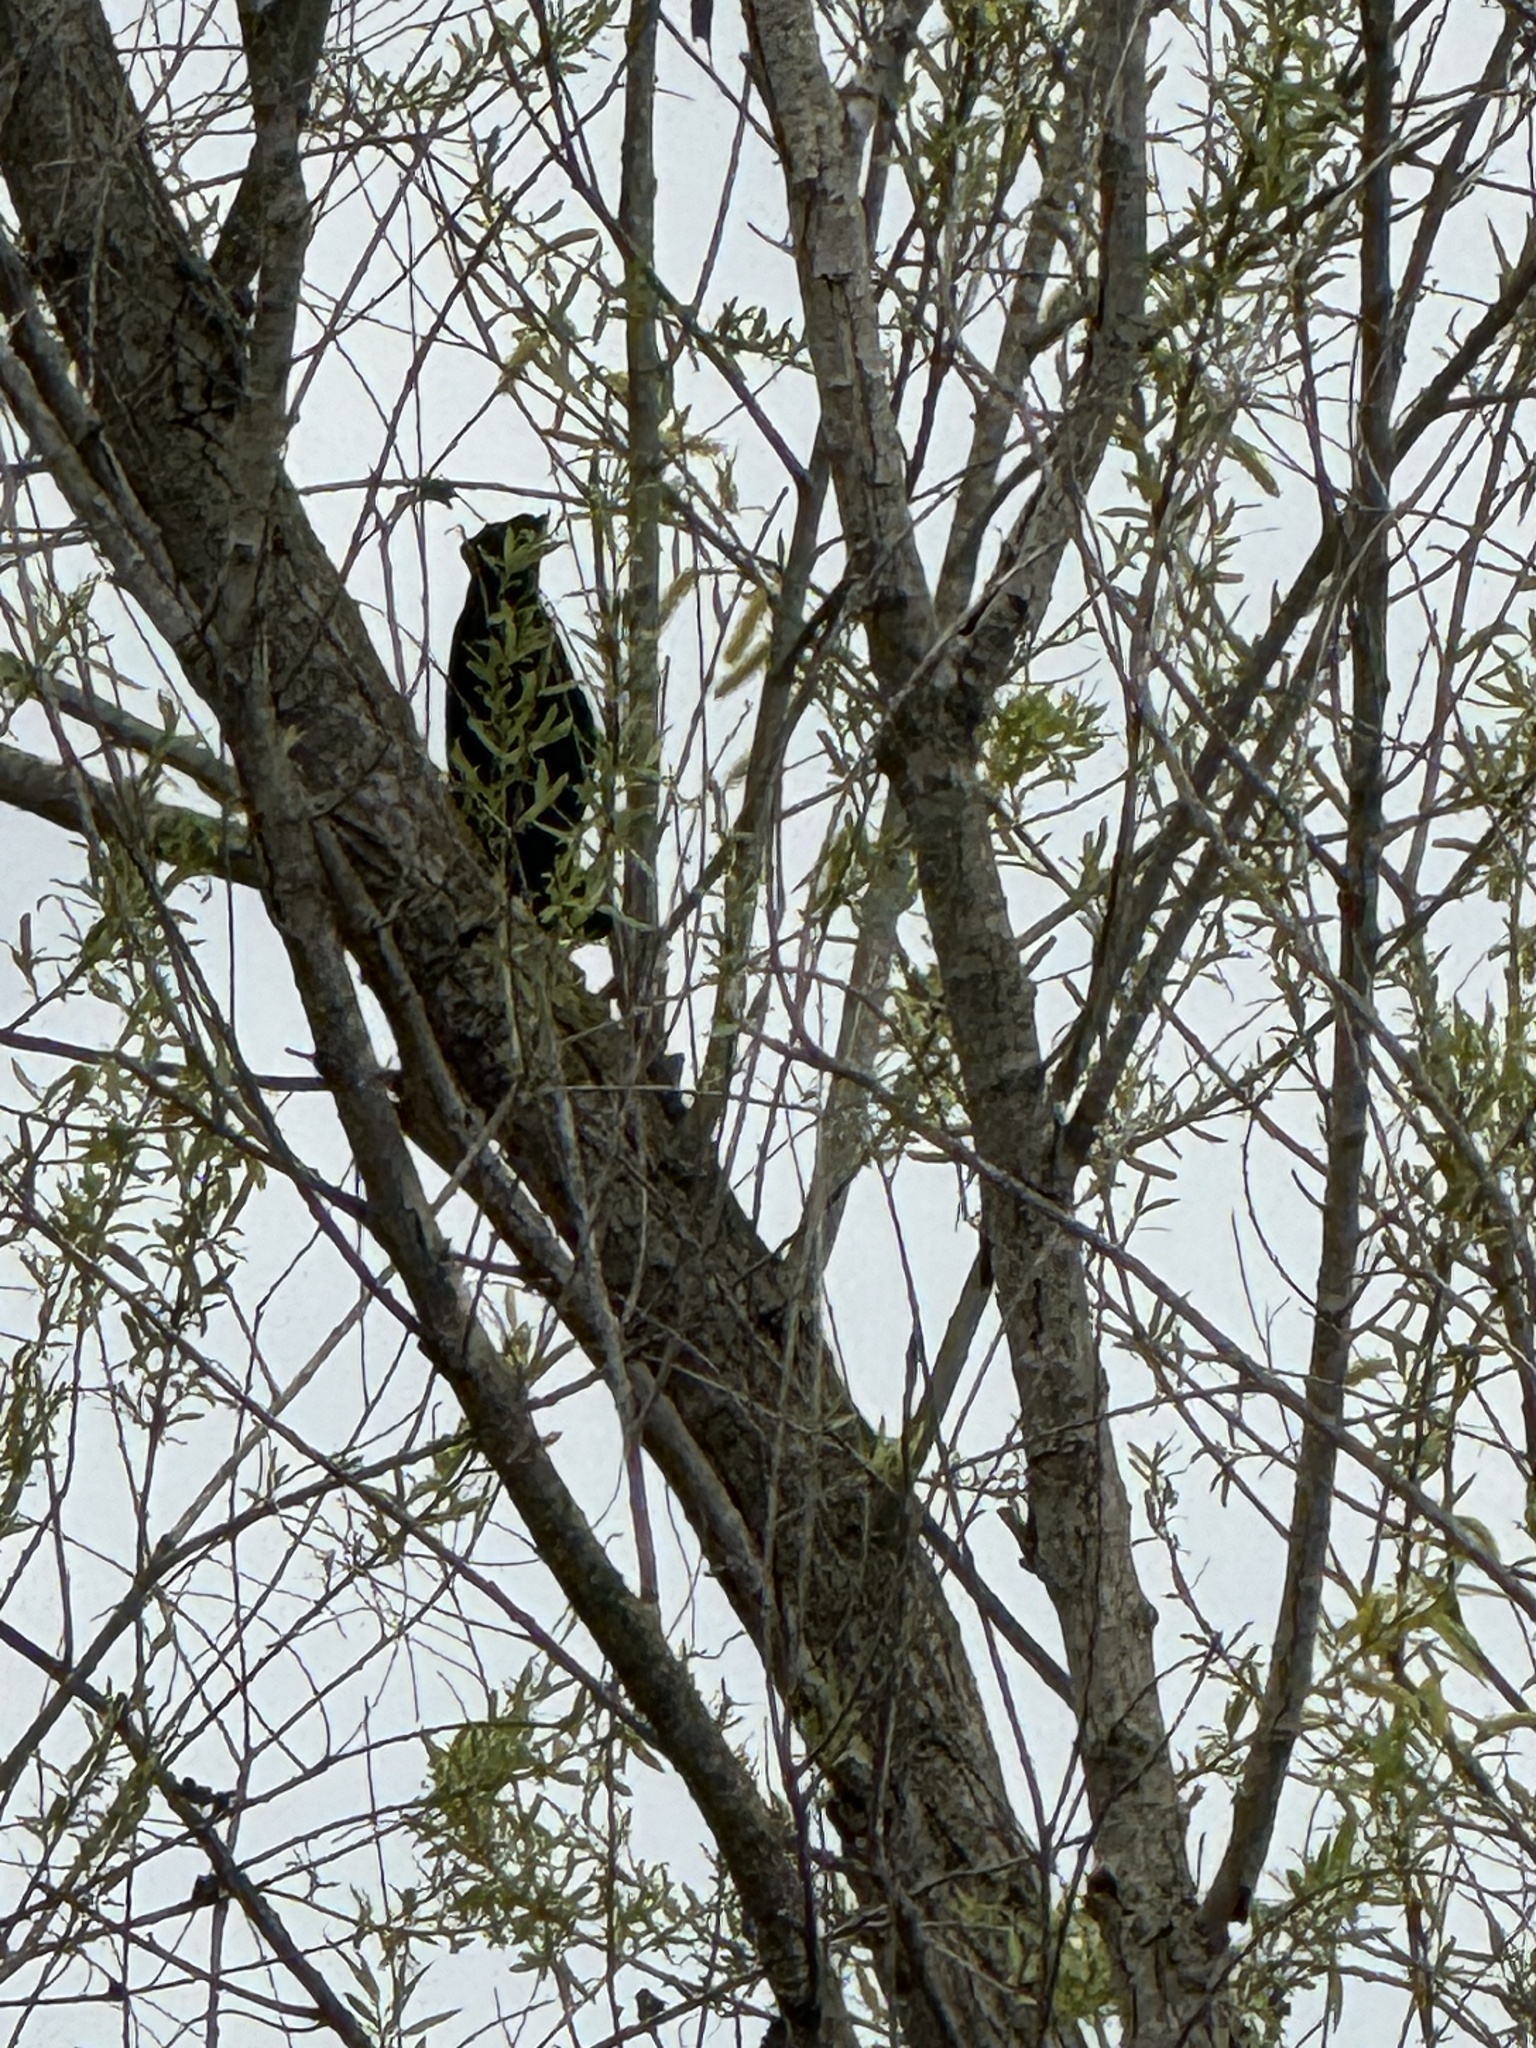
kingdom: Animalia
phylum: Chordata
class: Aves
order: Passeriformes
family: Icteridae
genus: Agelaius
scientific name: Agelaius phoeniceus
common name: Red-winged blackbird
